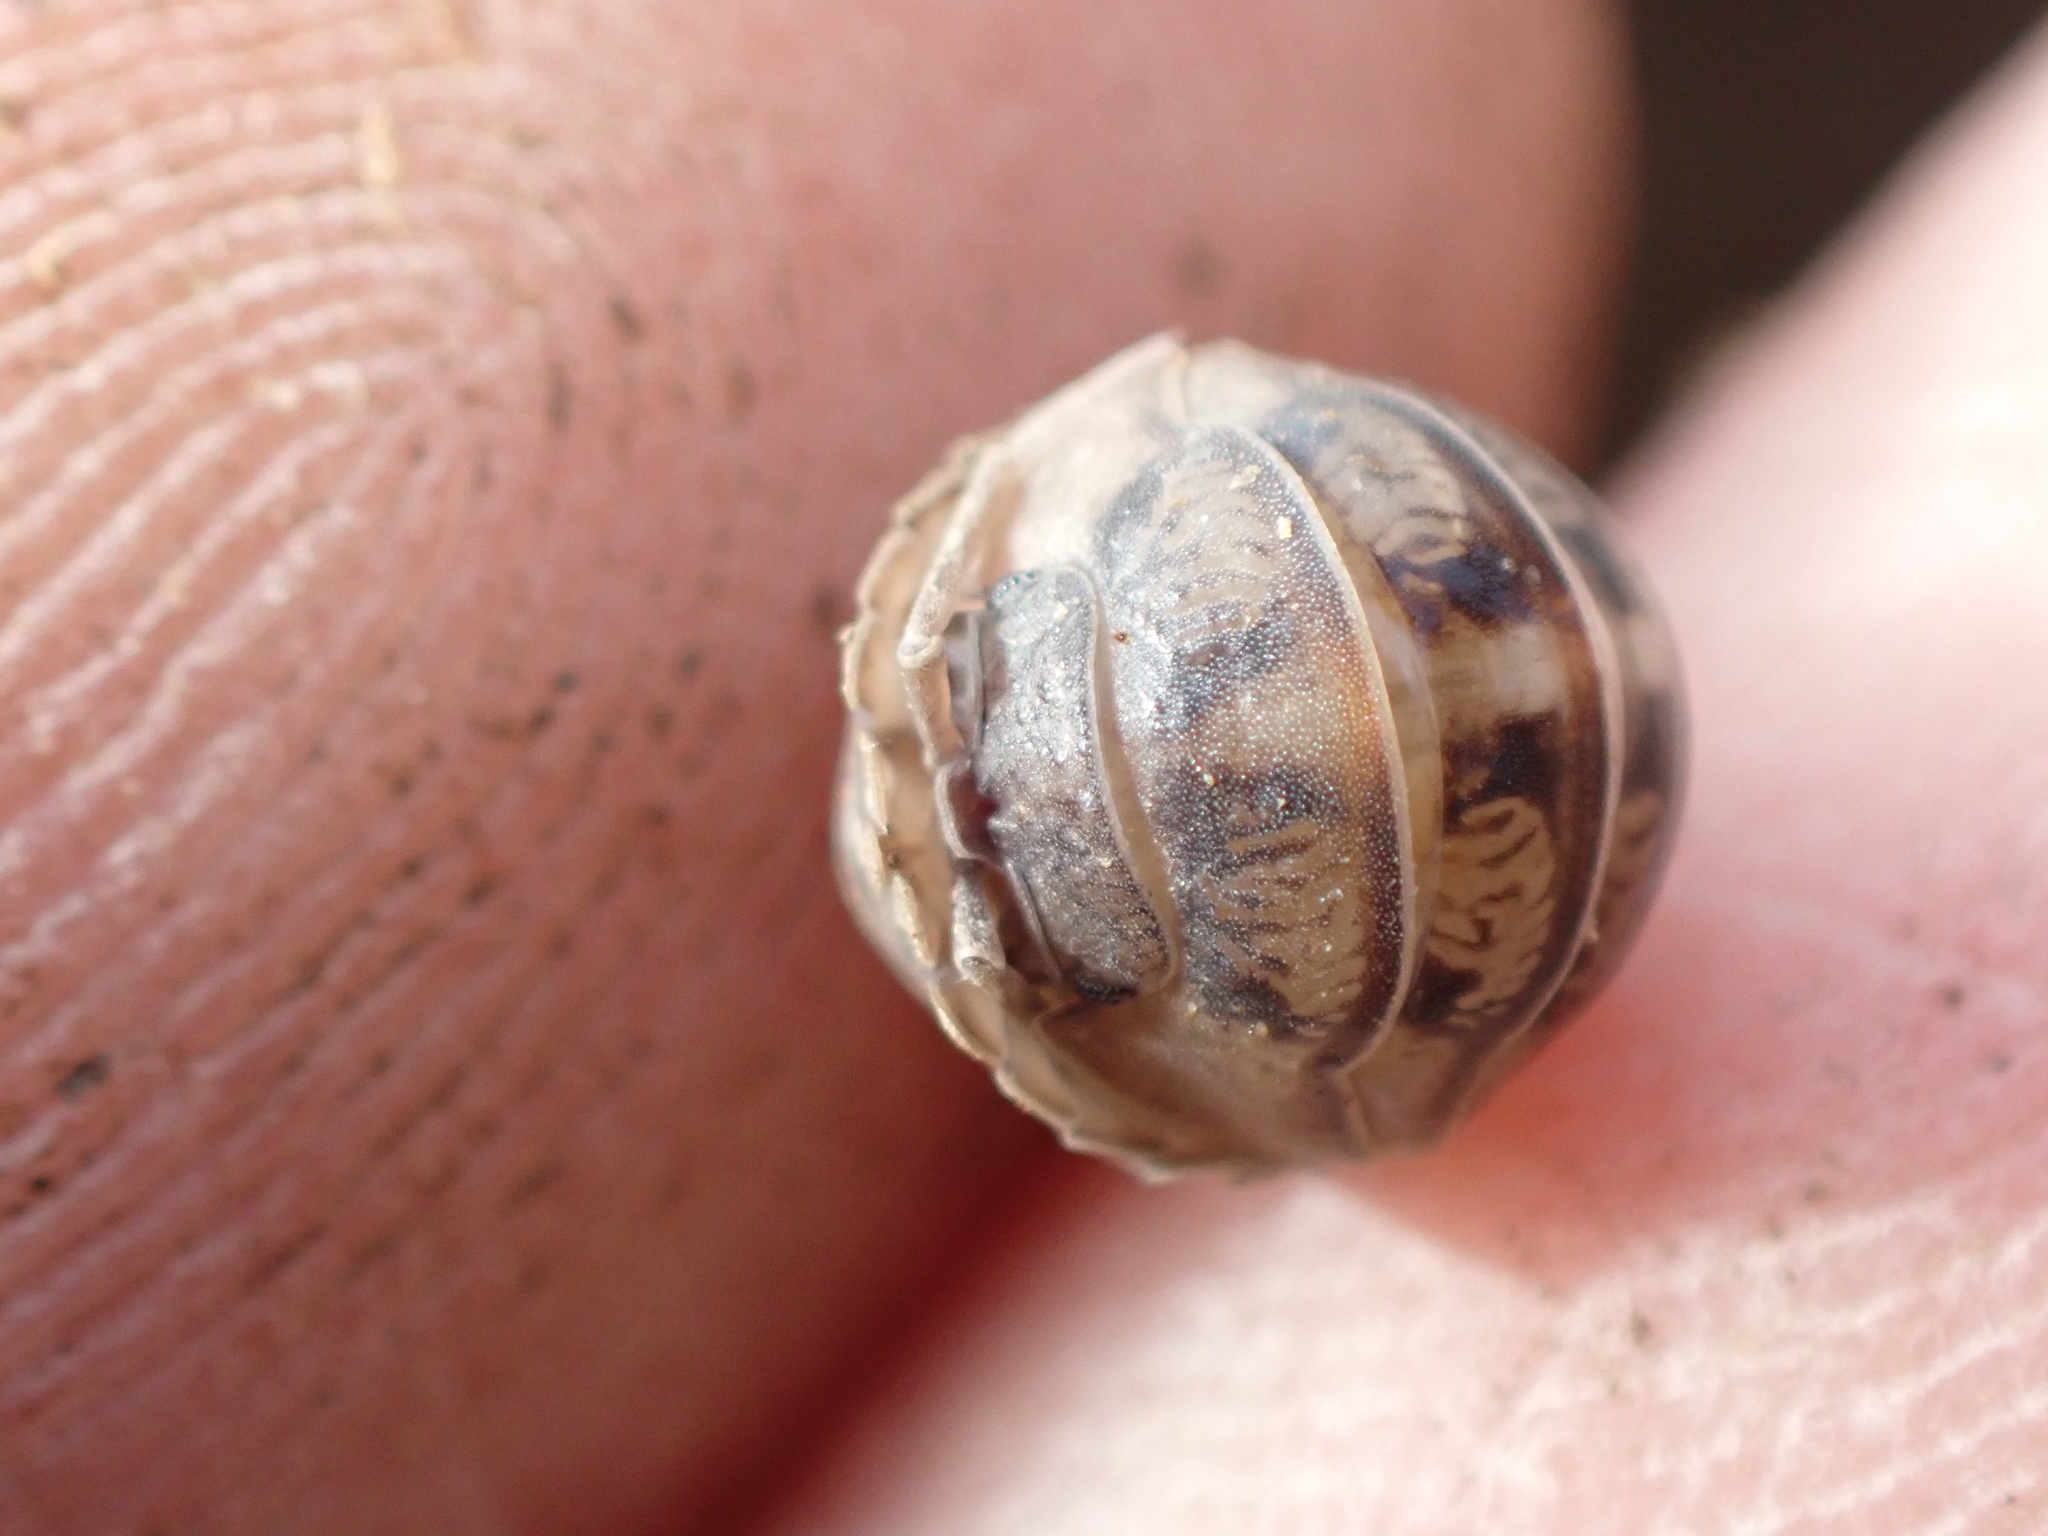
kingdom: Animalia
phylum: Arthropoda
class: Malacostraca
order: Isopoda
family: Armadillidiidae
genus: Armadillidium
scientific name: Armadillidium nasatum
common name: Isopod
